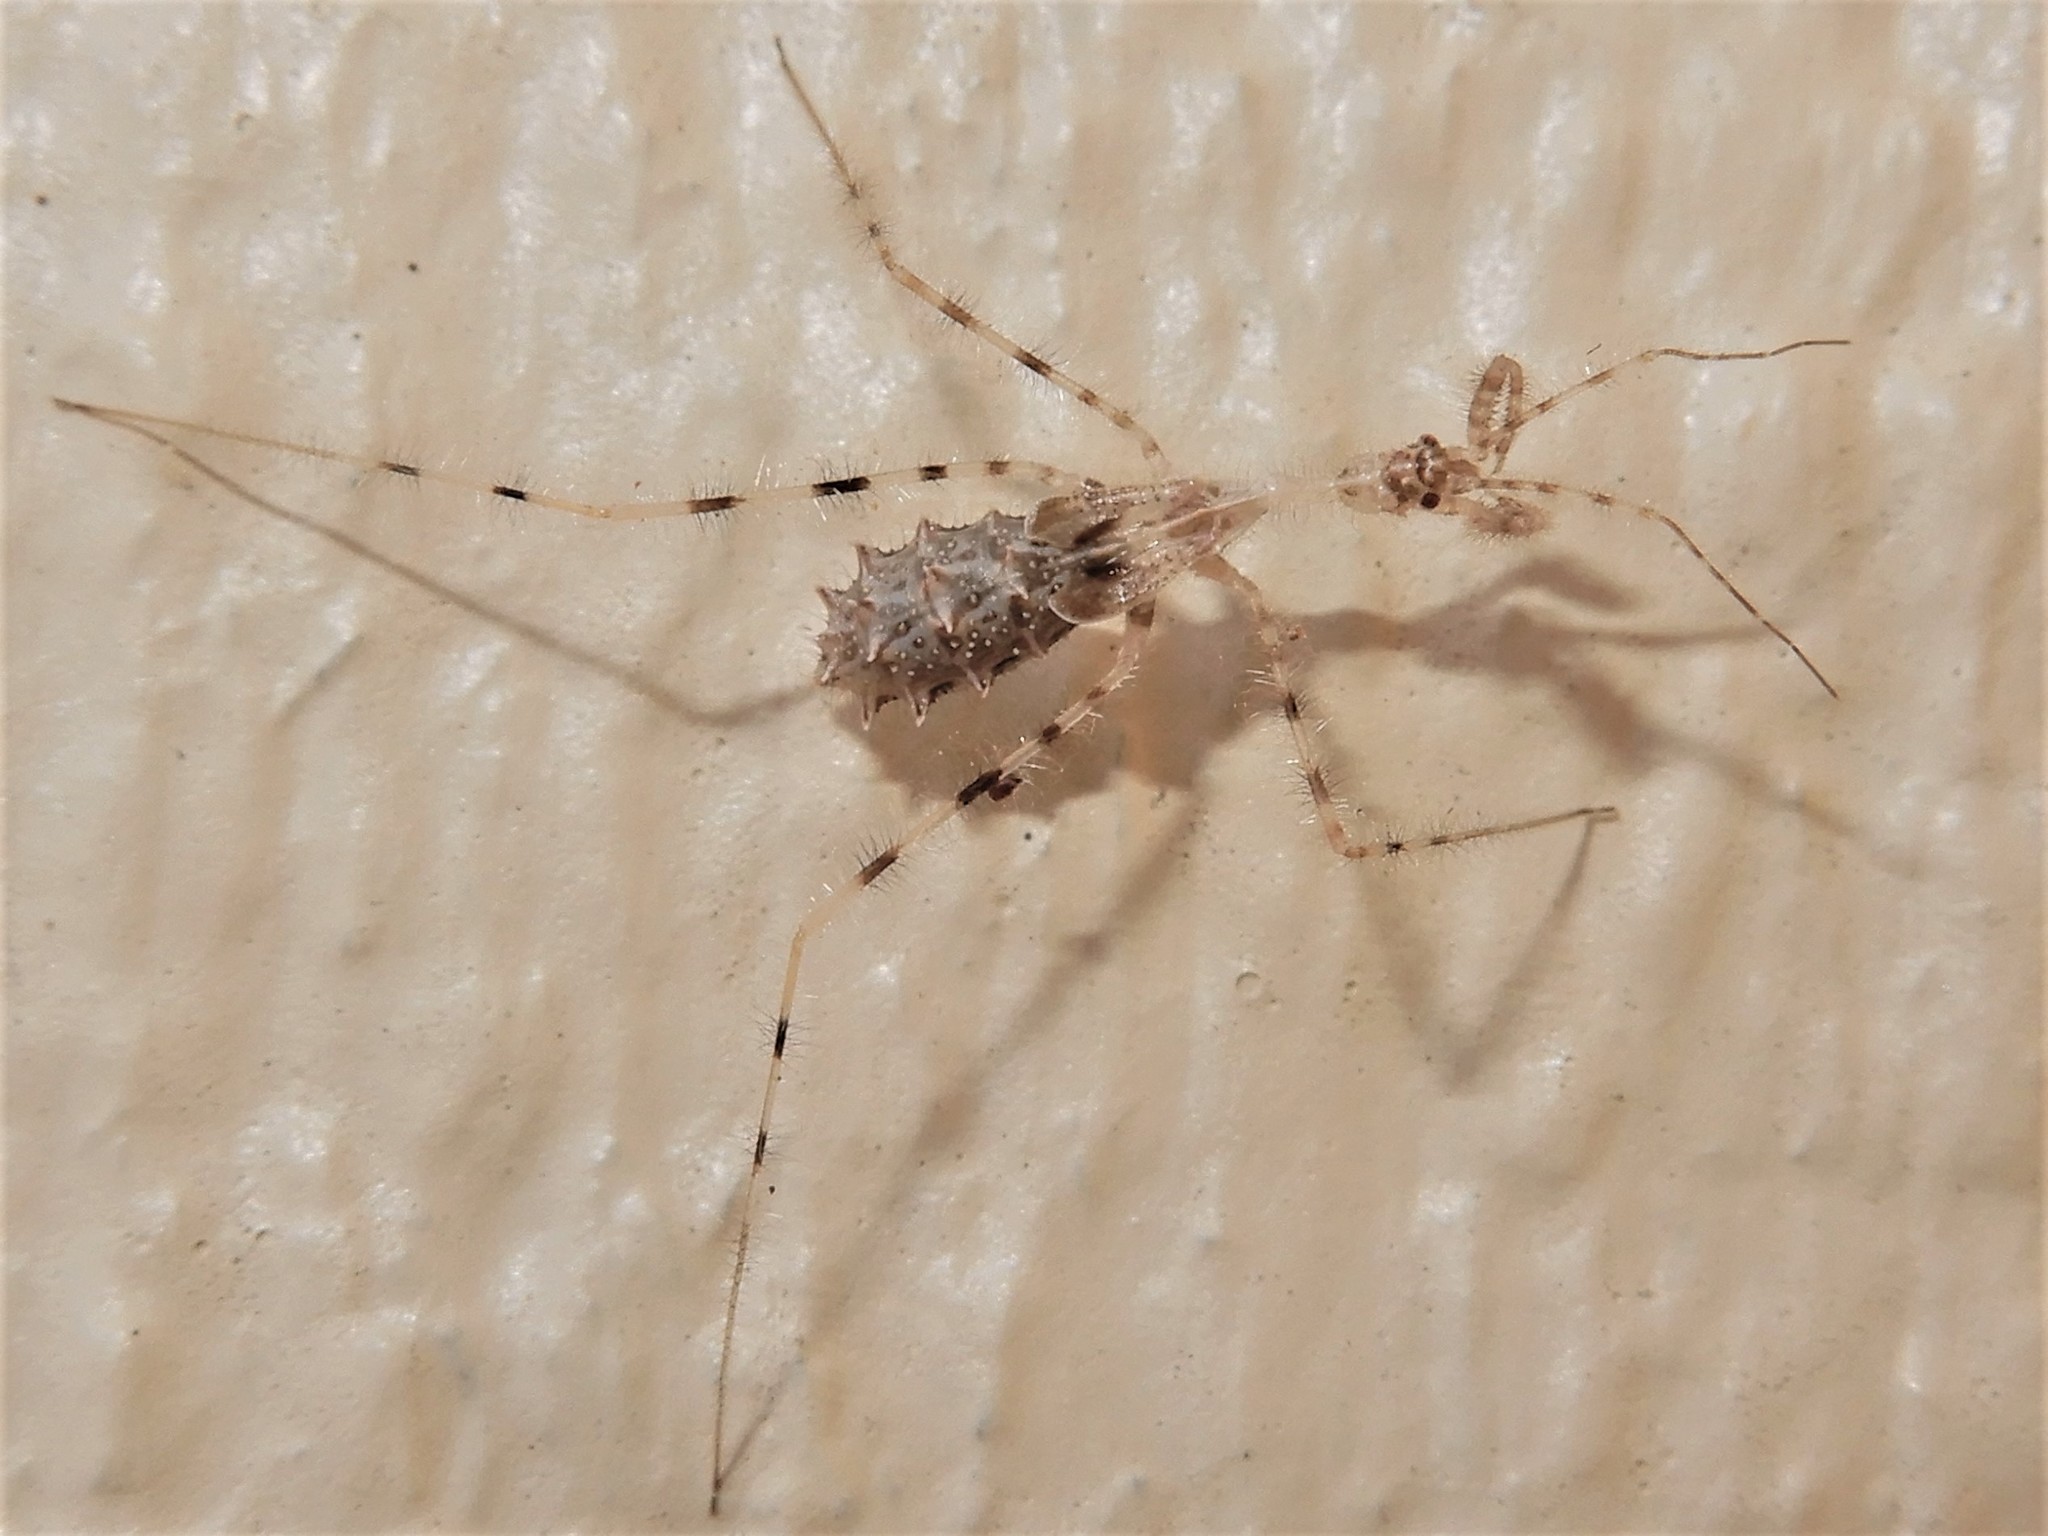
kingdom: Animalia
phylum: Arthropoda
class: Insecta
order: Hemiptera
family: Reduviidae
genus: Stenolemus
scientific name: Stenolemus fraterculus
